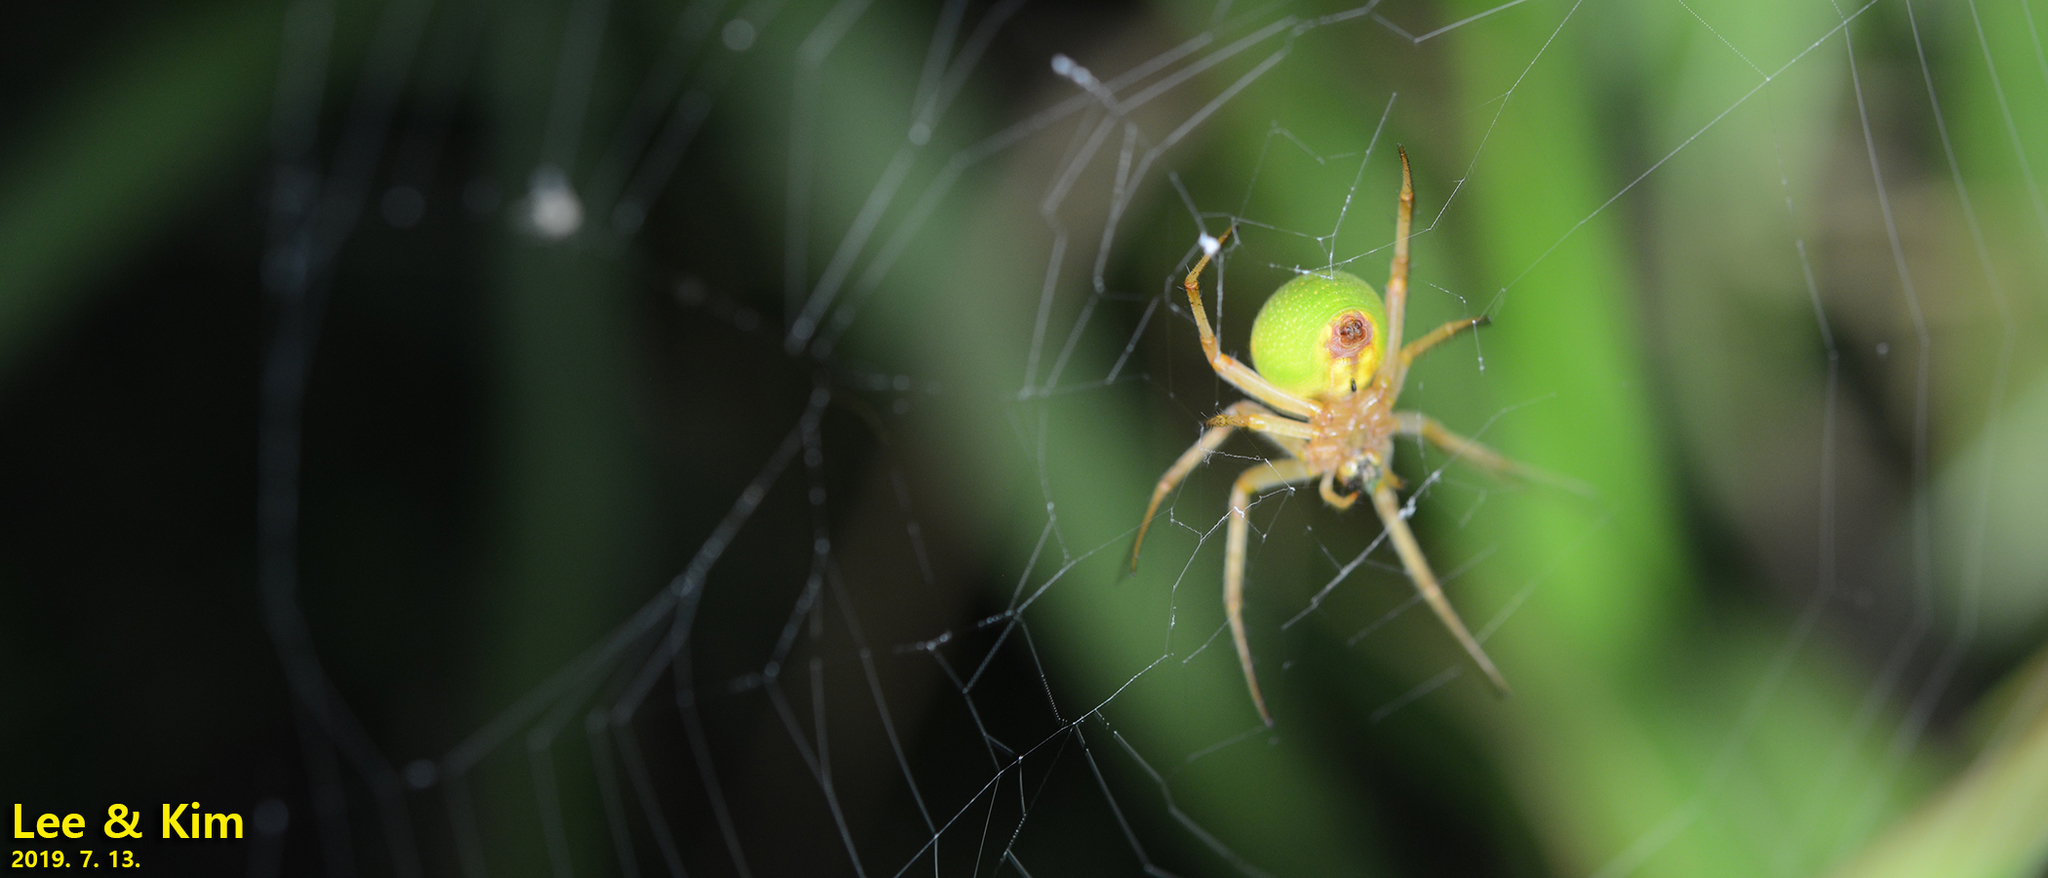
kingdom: Animalia
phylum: Arthropoda
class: Arachnida
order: Araneae
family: Araneidae
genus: Neoscona
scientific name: Neoscona scylloides
